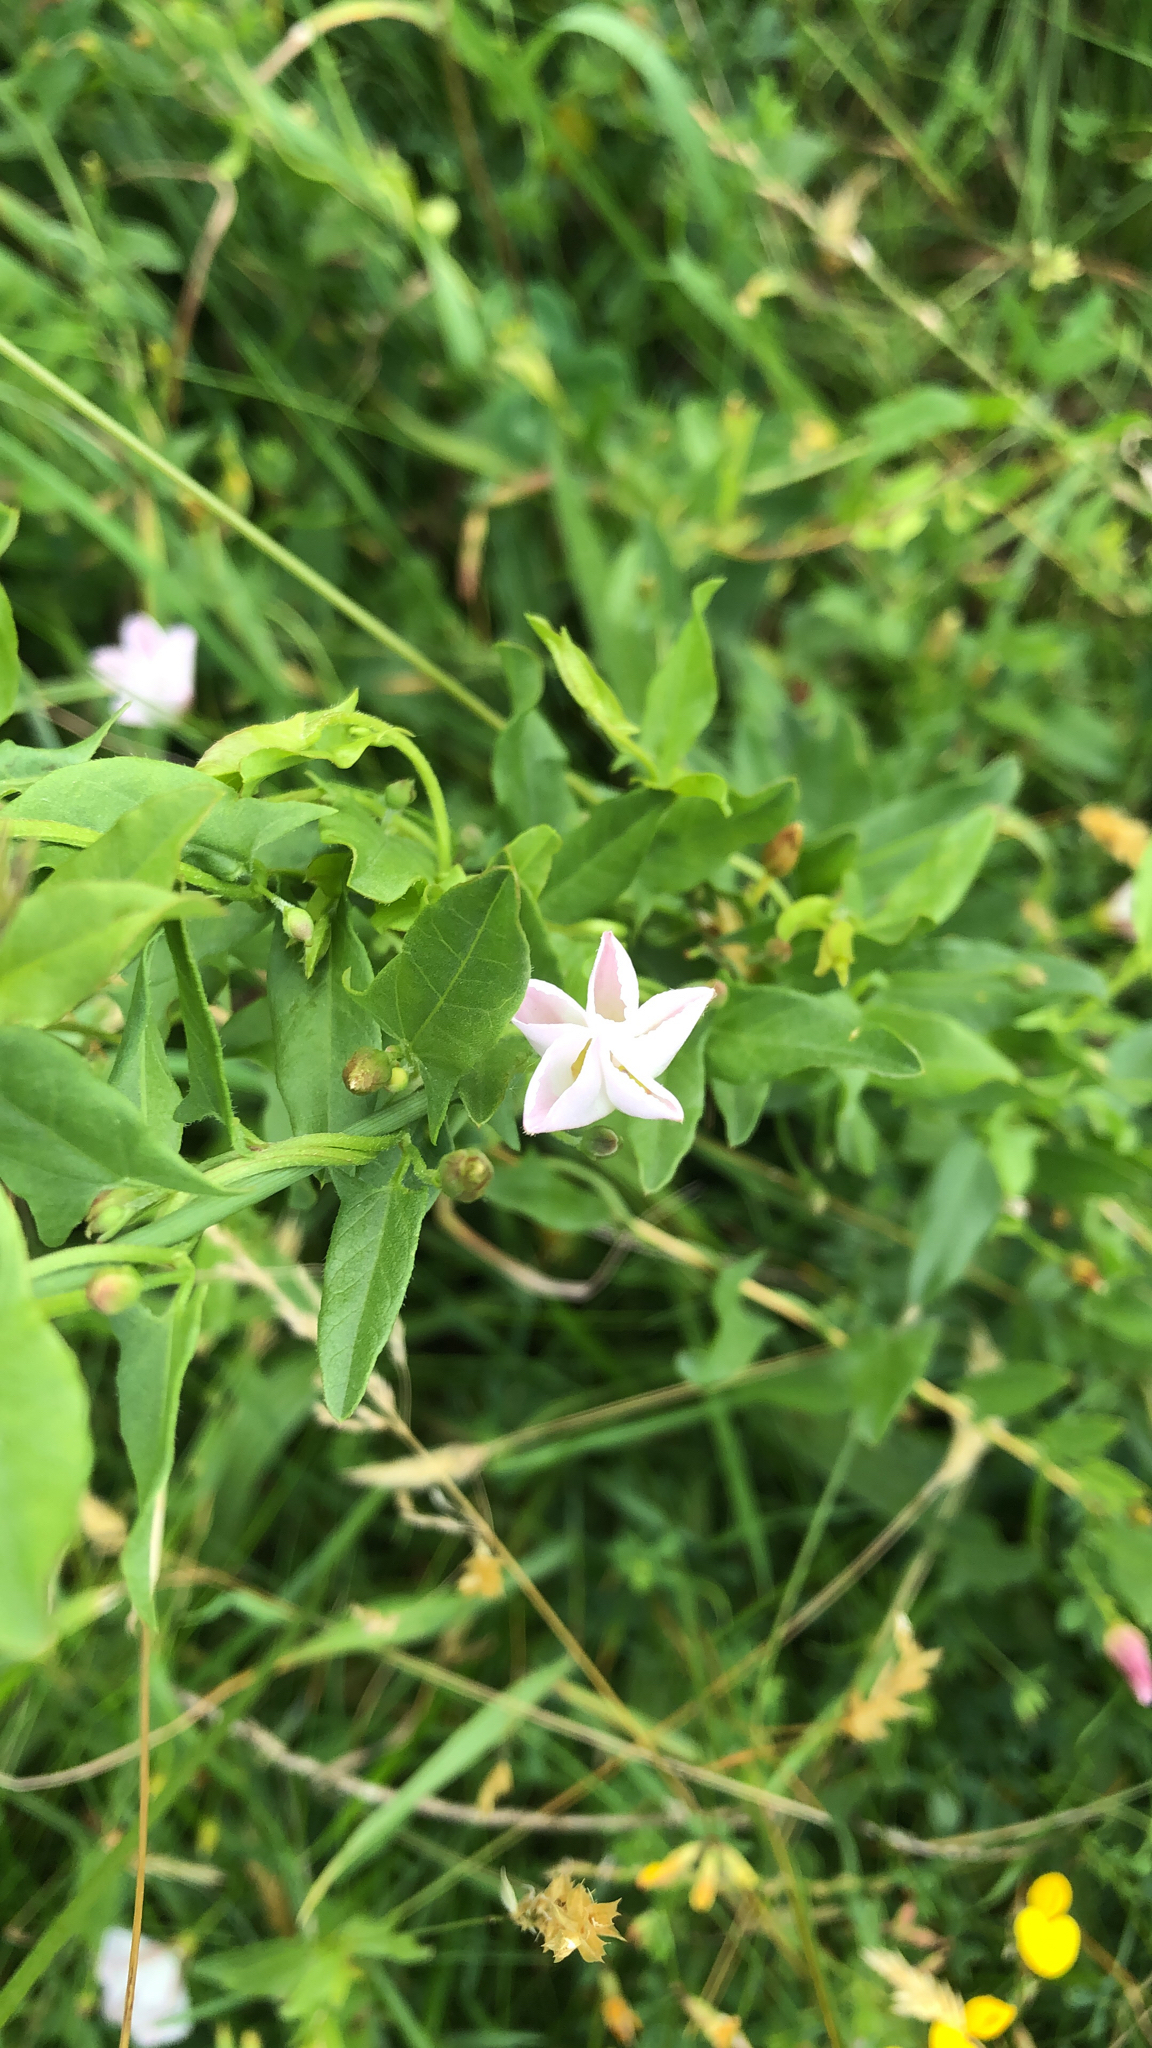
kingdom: Plantae
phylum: Tracheophyta
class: Magnoliopsida
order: Solanales
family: Convolvulaceae
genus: Convolvulus
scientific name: Convolvulus arvensis
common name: Field bindweed
